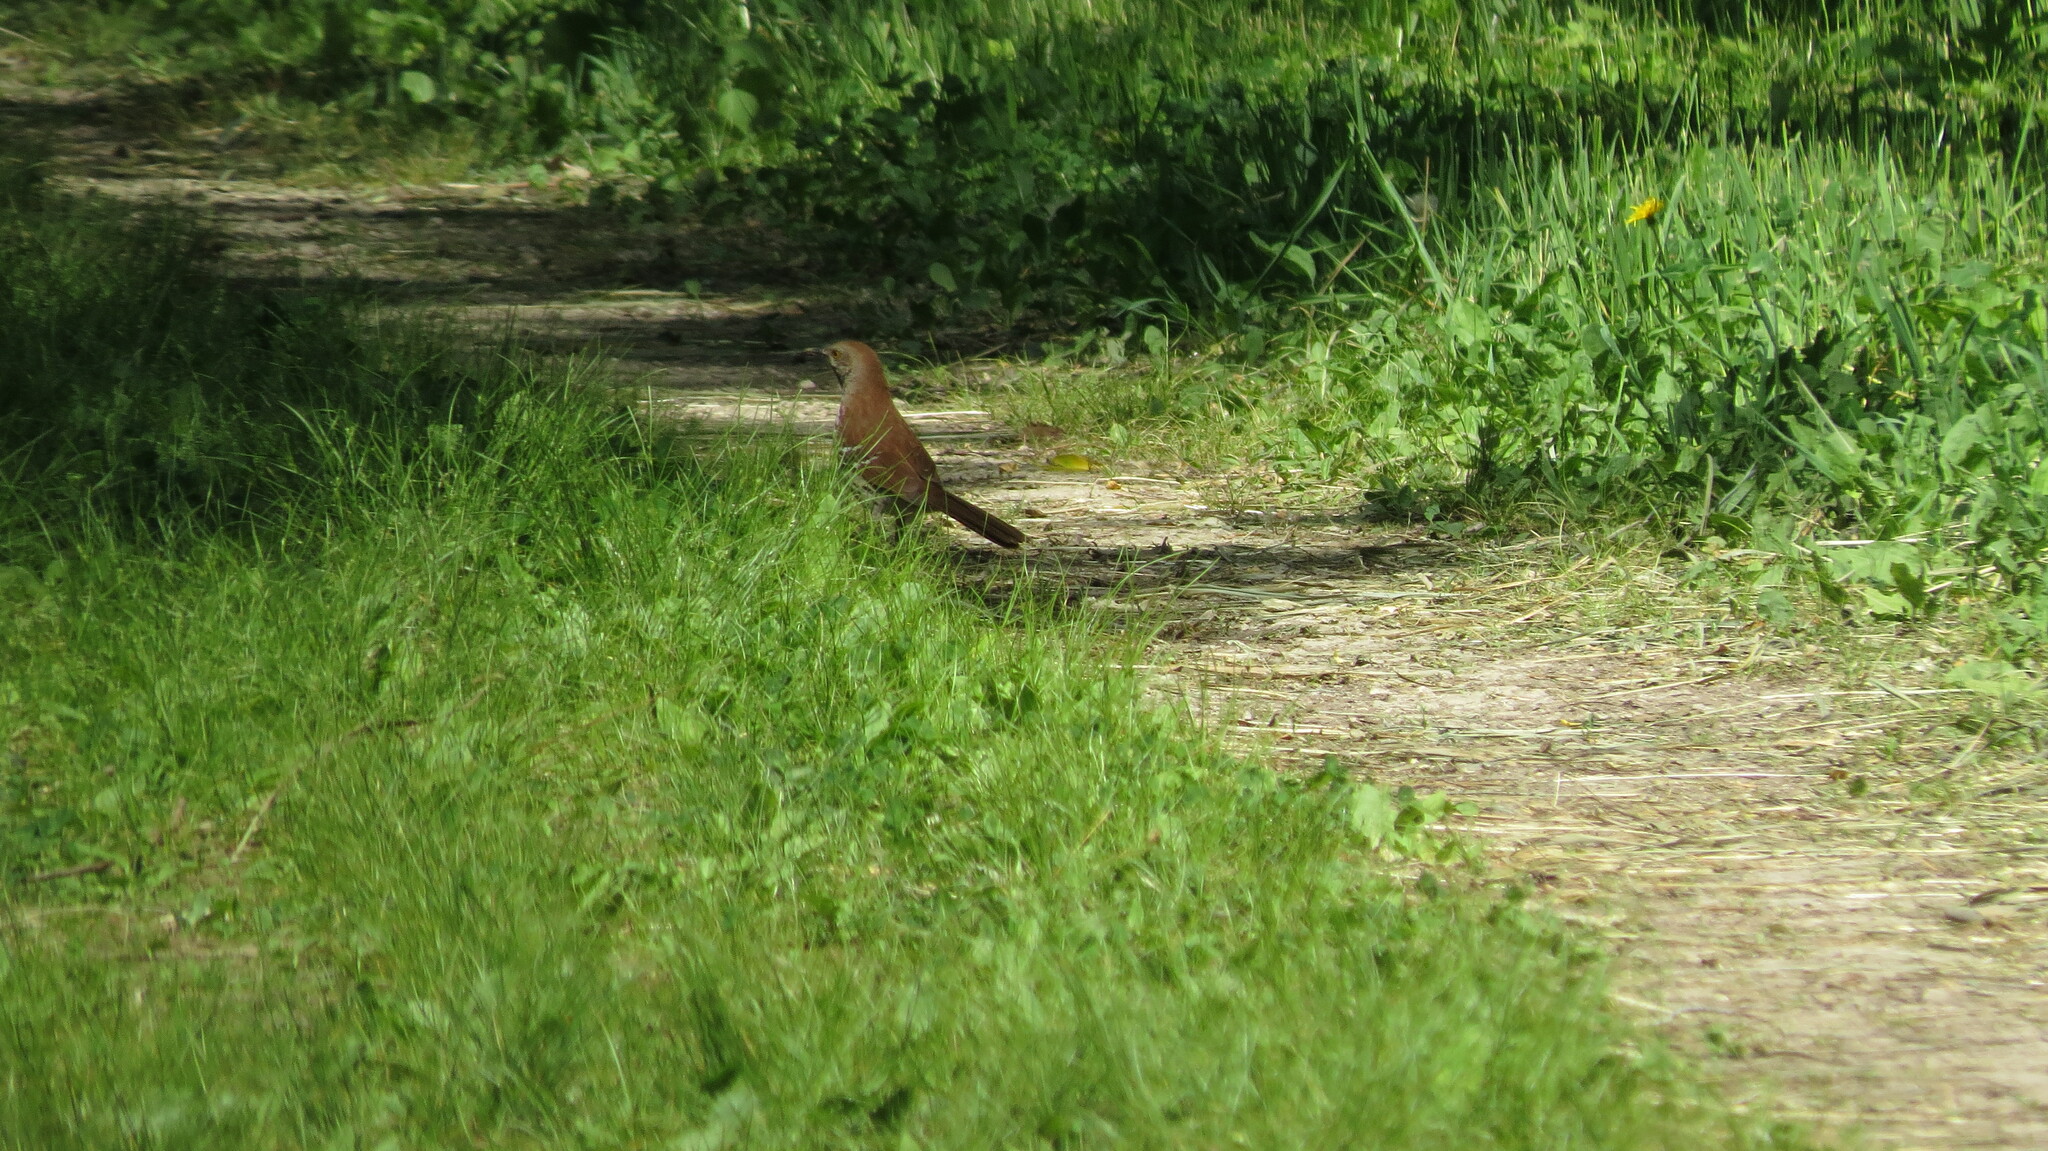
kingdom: Animalia
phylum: Chordata
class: Aves
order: Passeriformes
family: Mimidae
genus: Toxostoma
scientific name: Toxostoma rufum
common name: Brown thrasher
